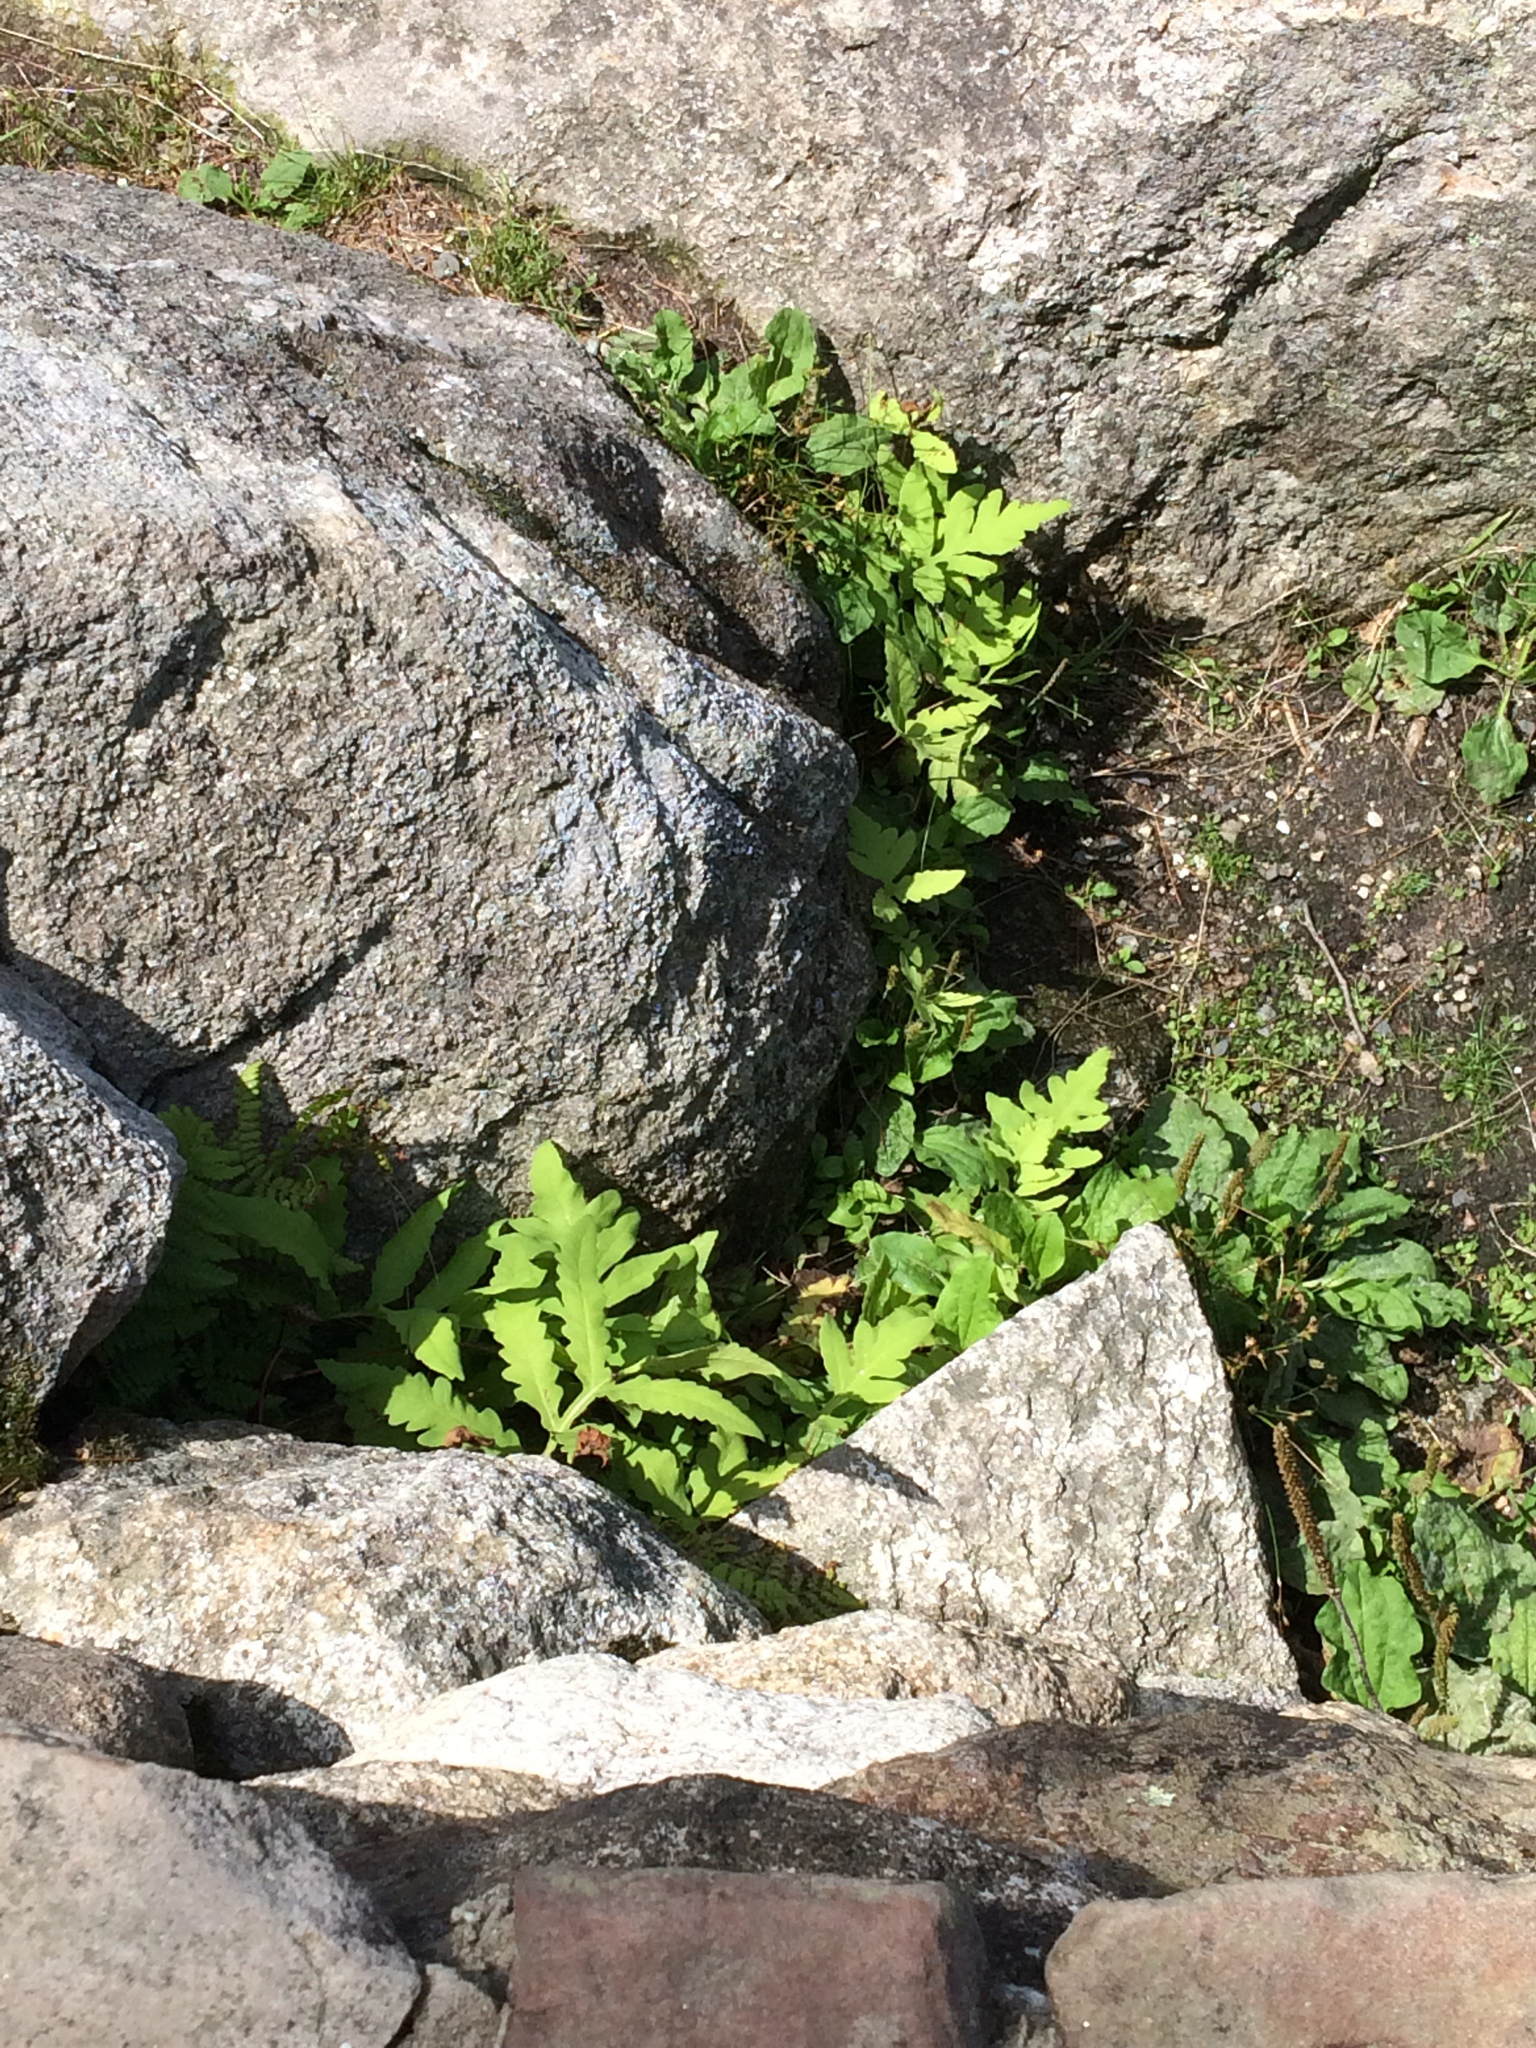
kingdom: Plantae
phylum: Tracheophyta
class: Polypodiopsida
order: Polypodiales
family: Onocleaceae
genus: Onoclea
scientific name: Onoclea sensibilis
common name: Sensitive fern
